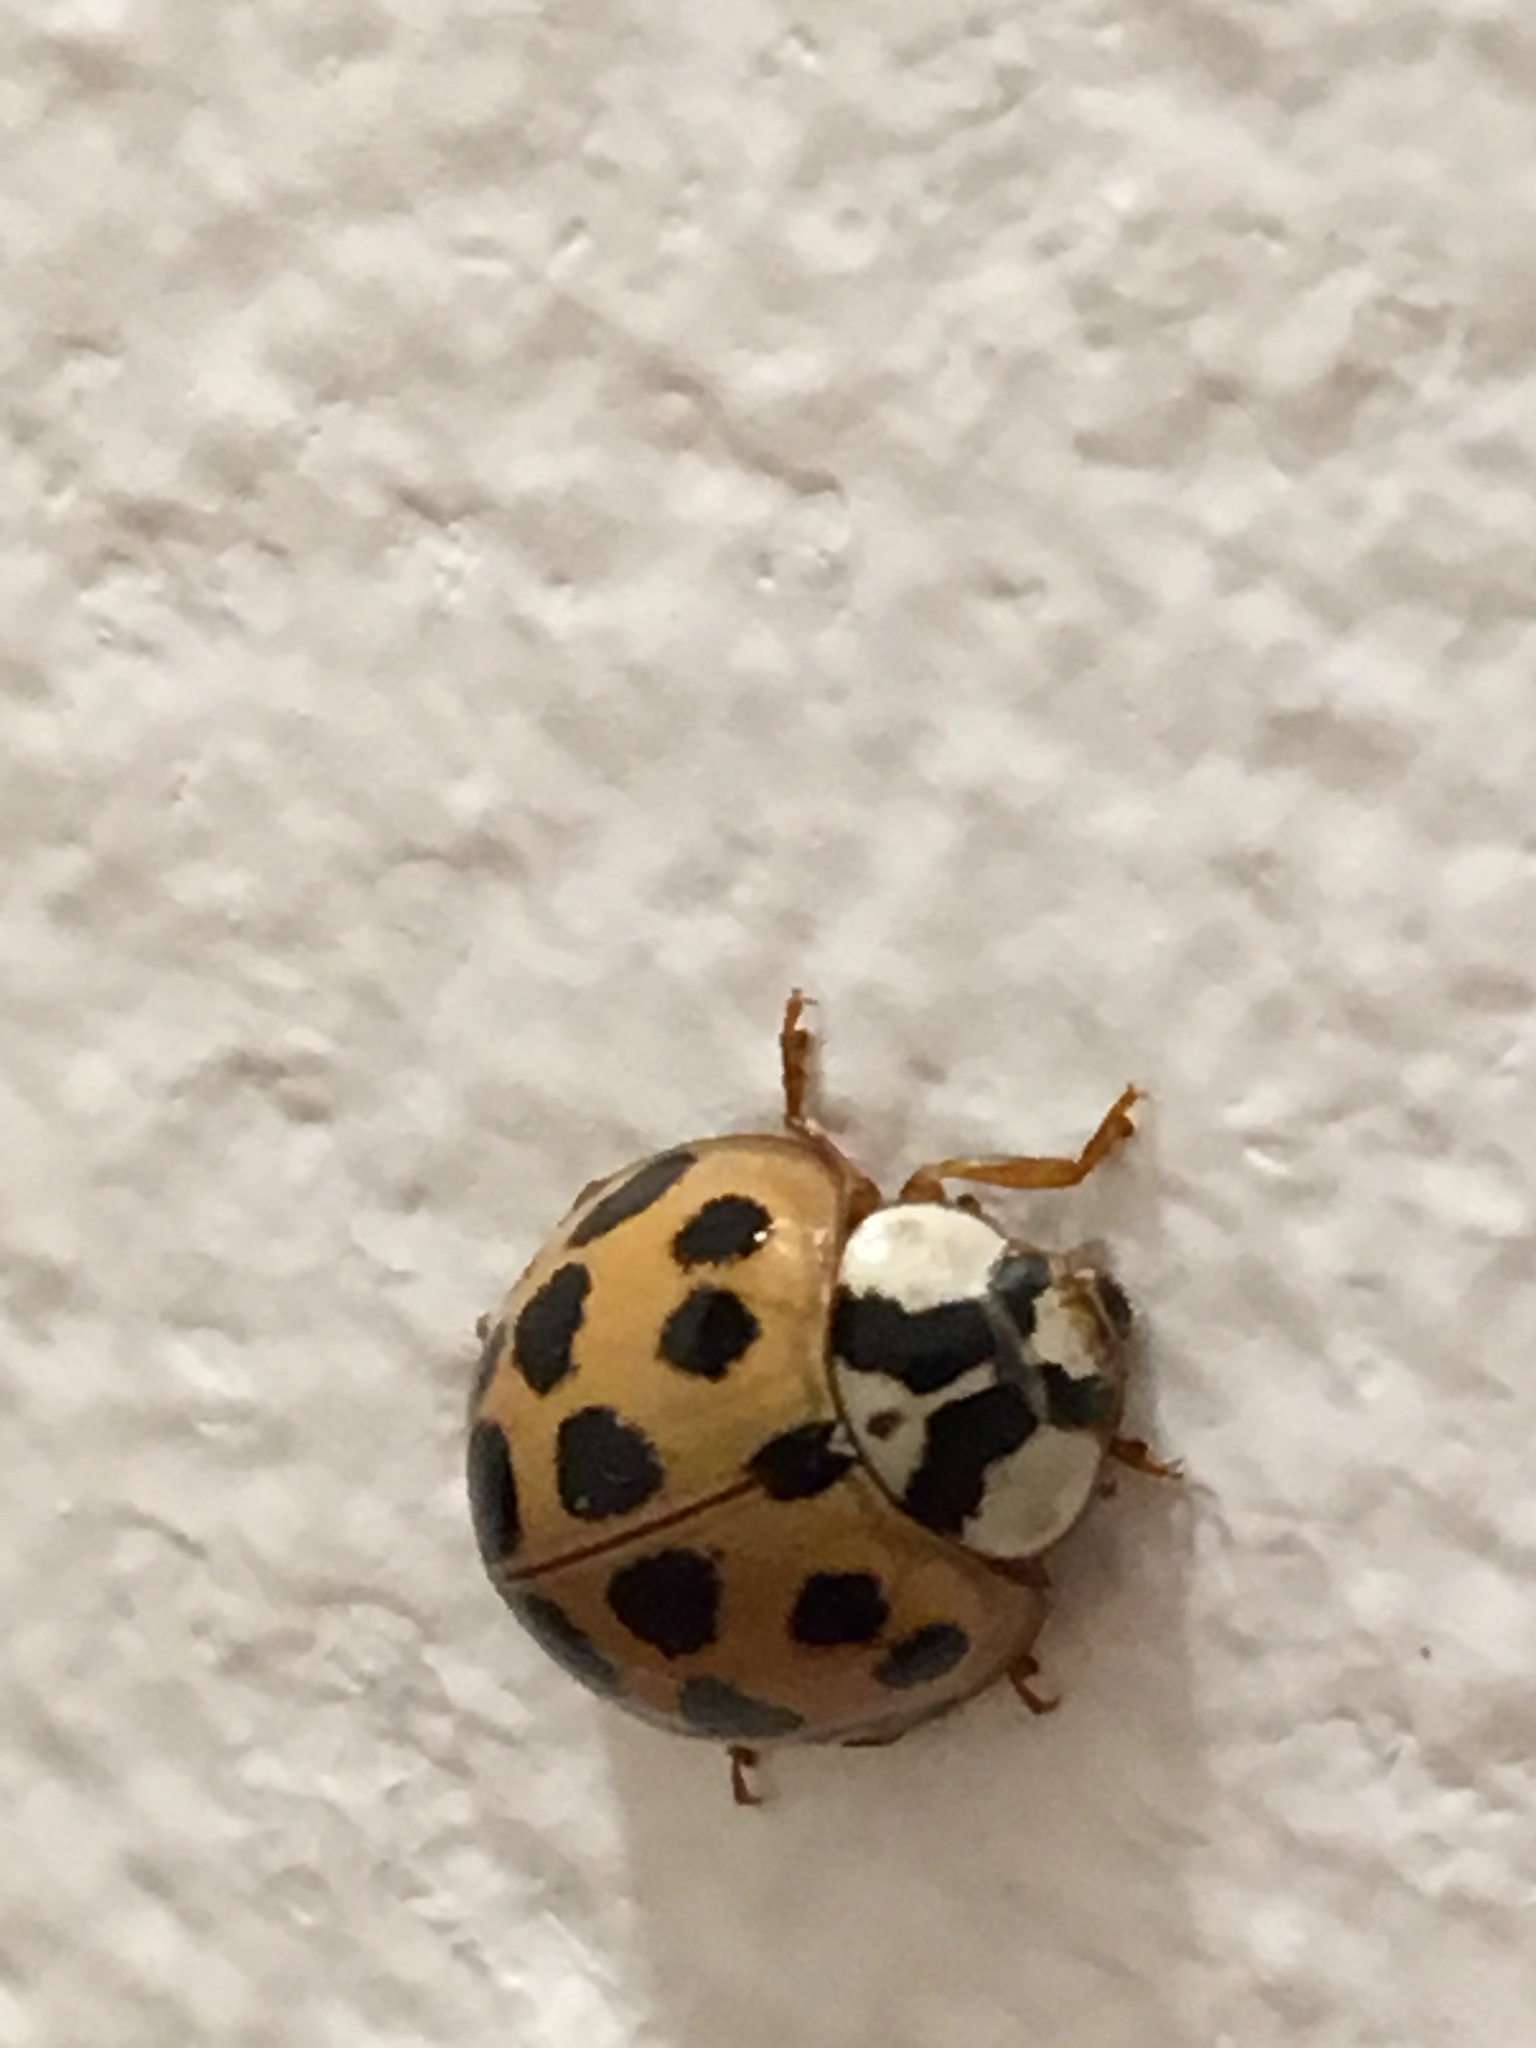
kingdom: Animalia
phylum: Arthropoda
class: Insecta
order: Coleoptera
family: Coccinellidae
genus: Harmonia
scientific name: Harmonia axyridis
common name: Harlequin ladybird
